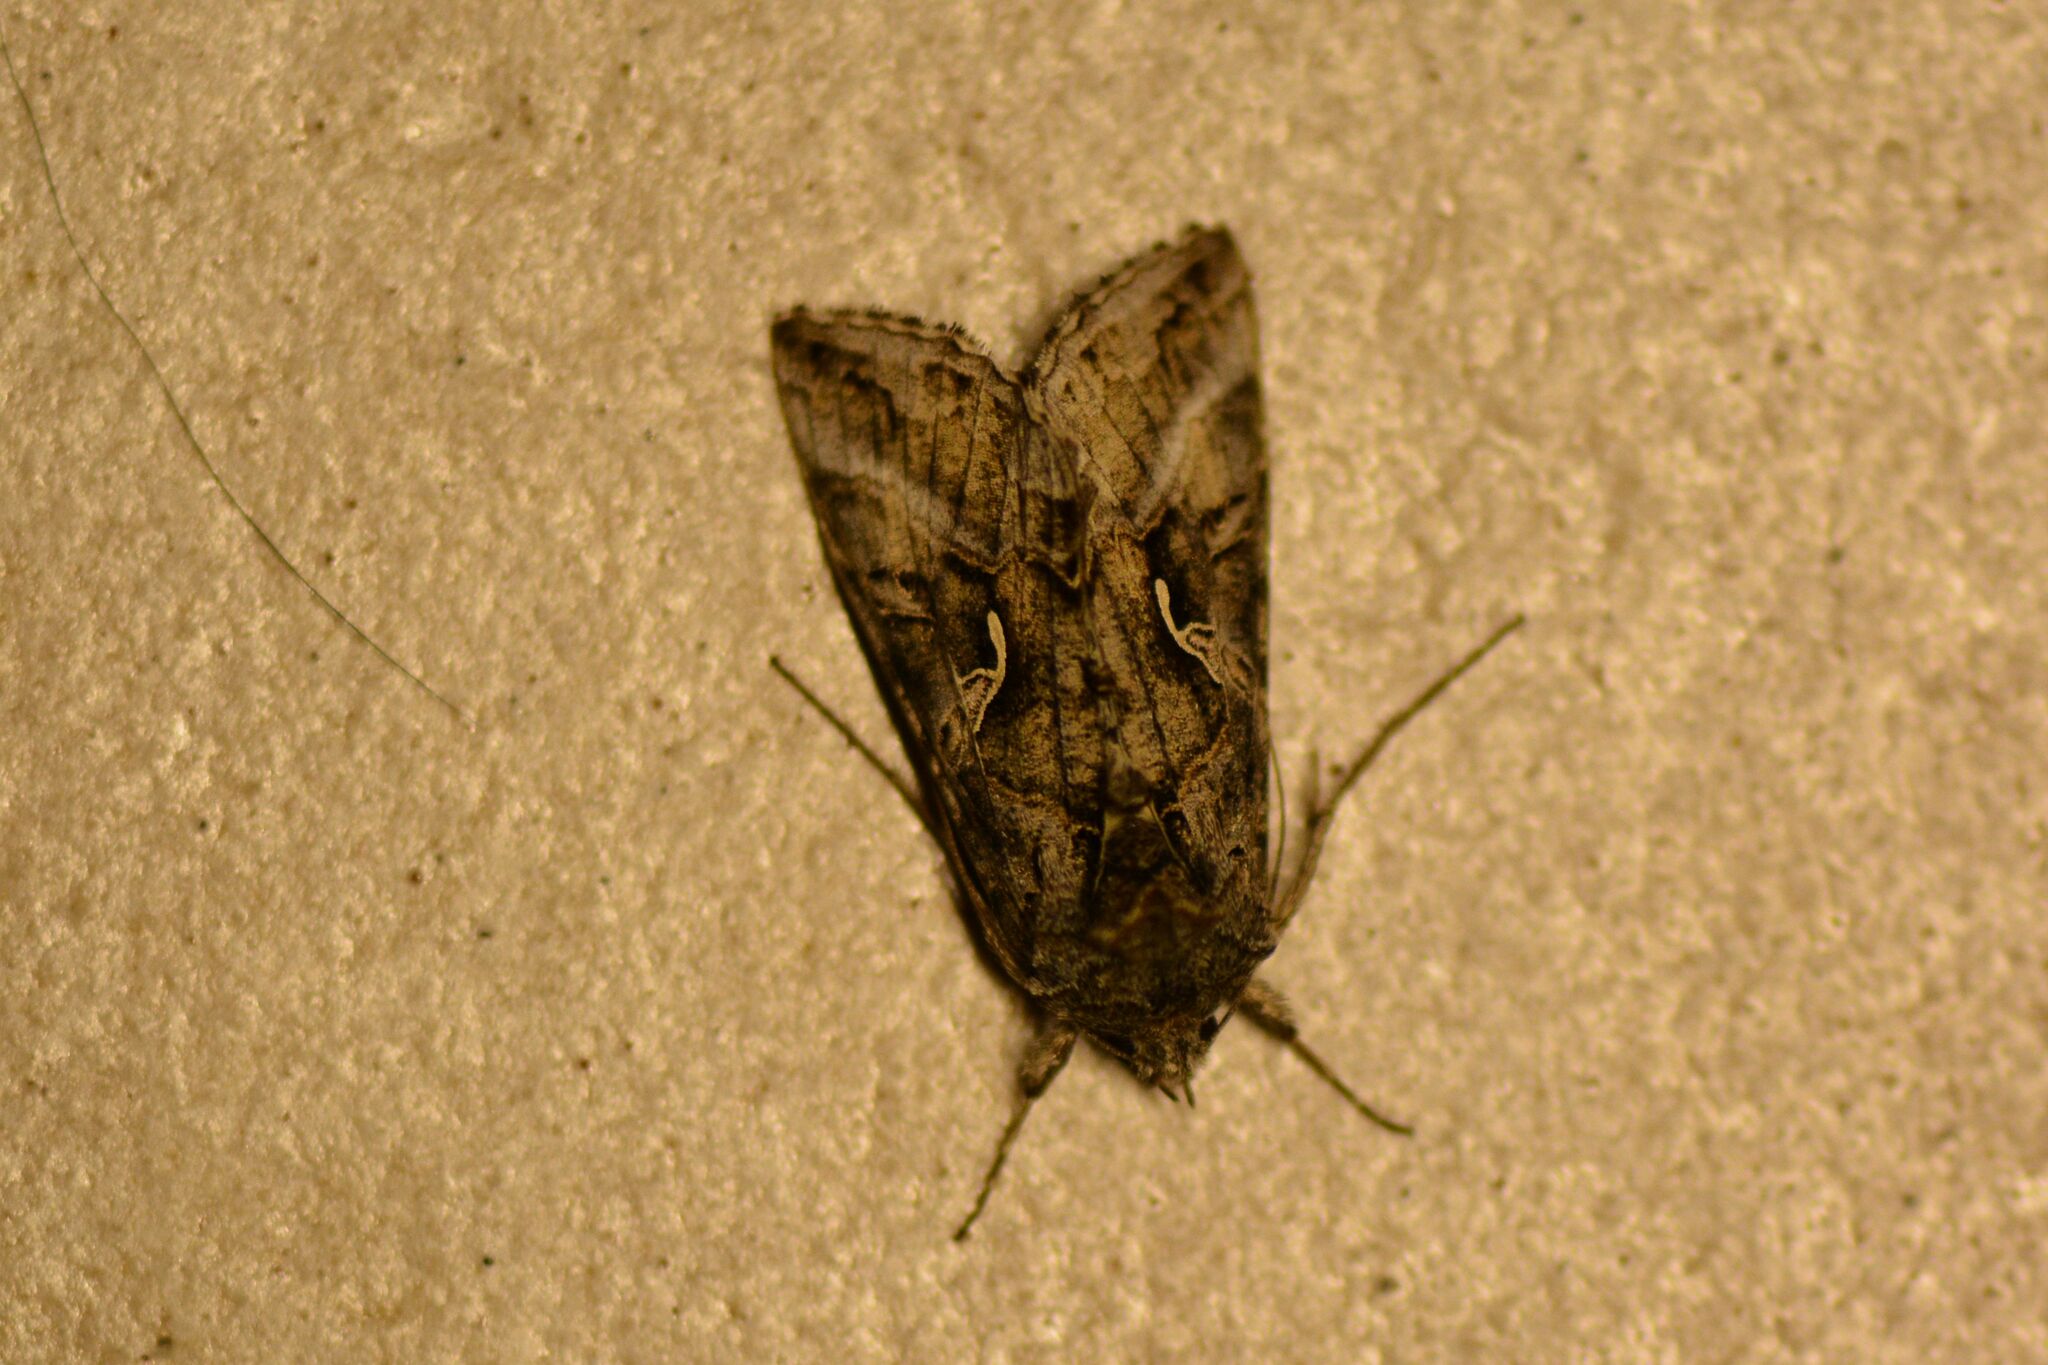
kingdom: Animalia
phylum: Arthropoda
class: Insecta
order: Lepidoptera
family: Noctuidae
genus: Autographa
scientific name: Autographa gamma
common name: Silver y
